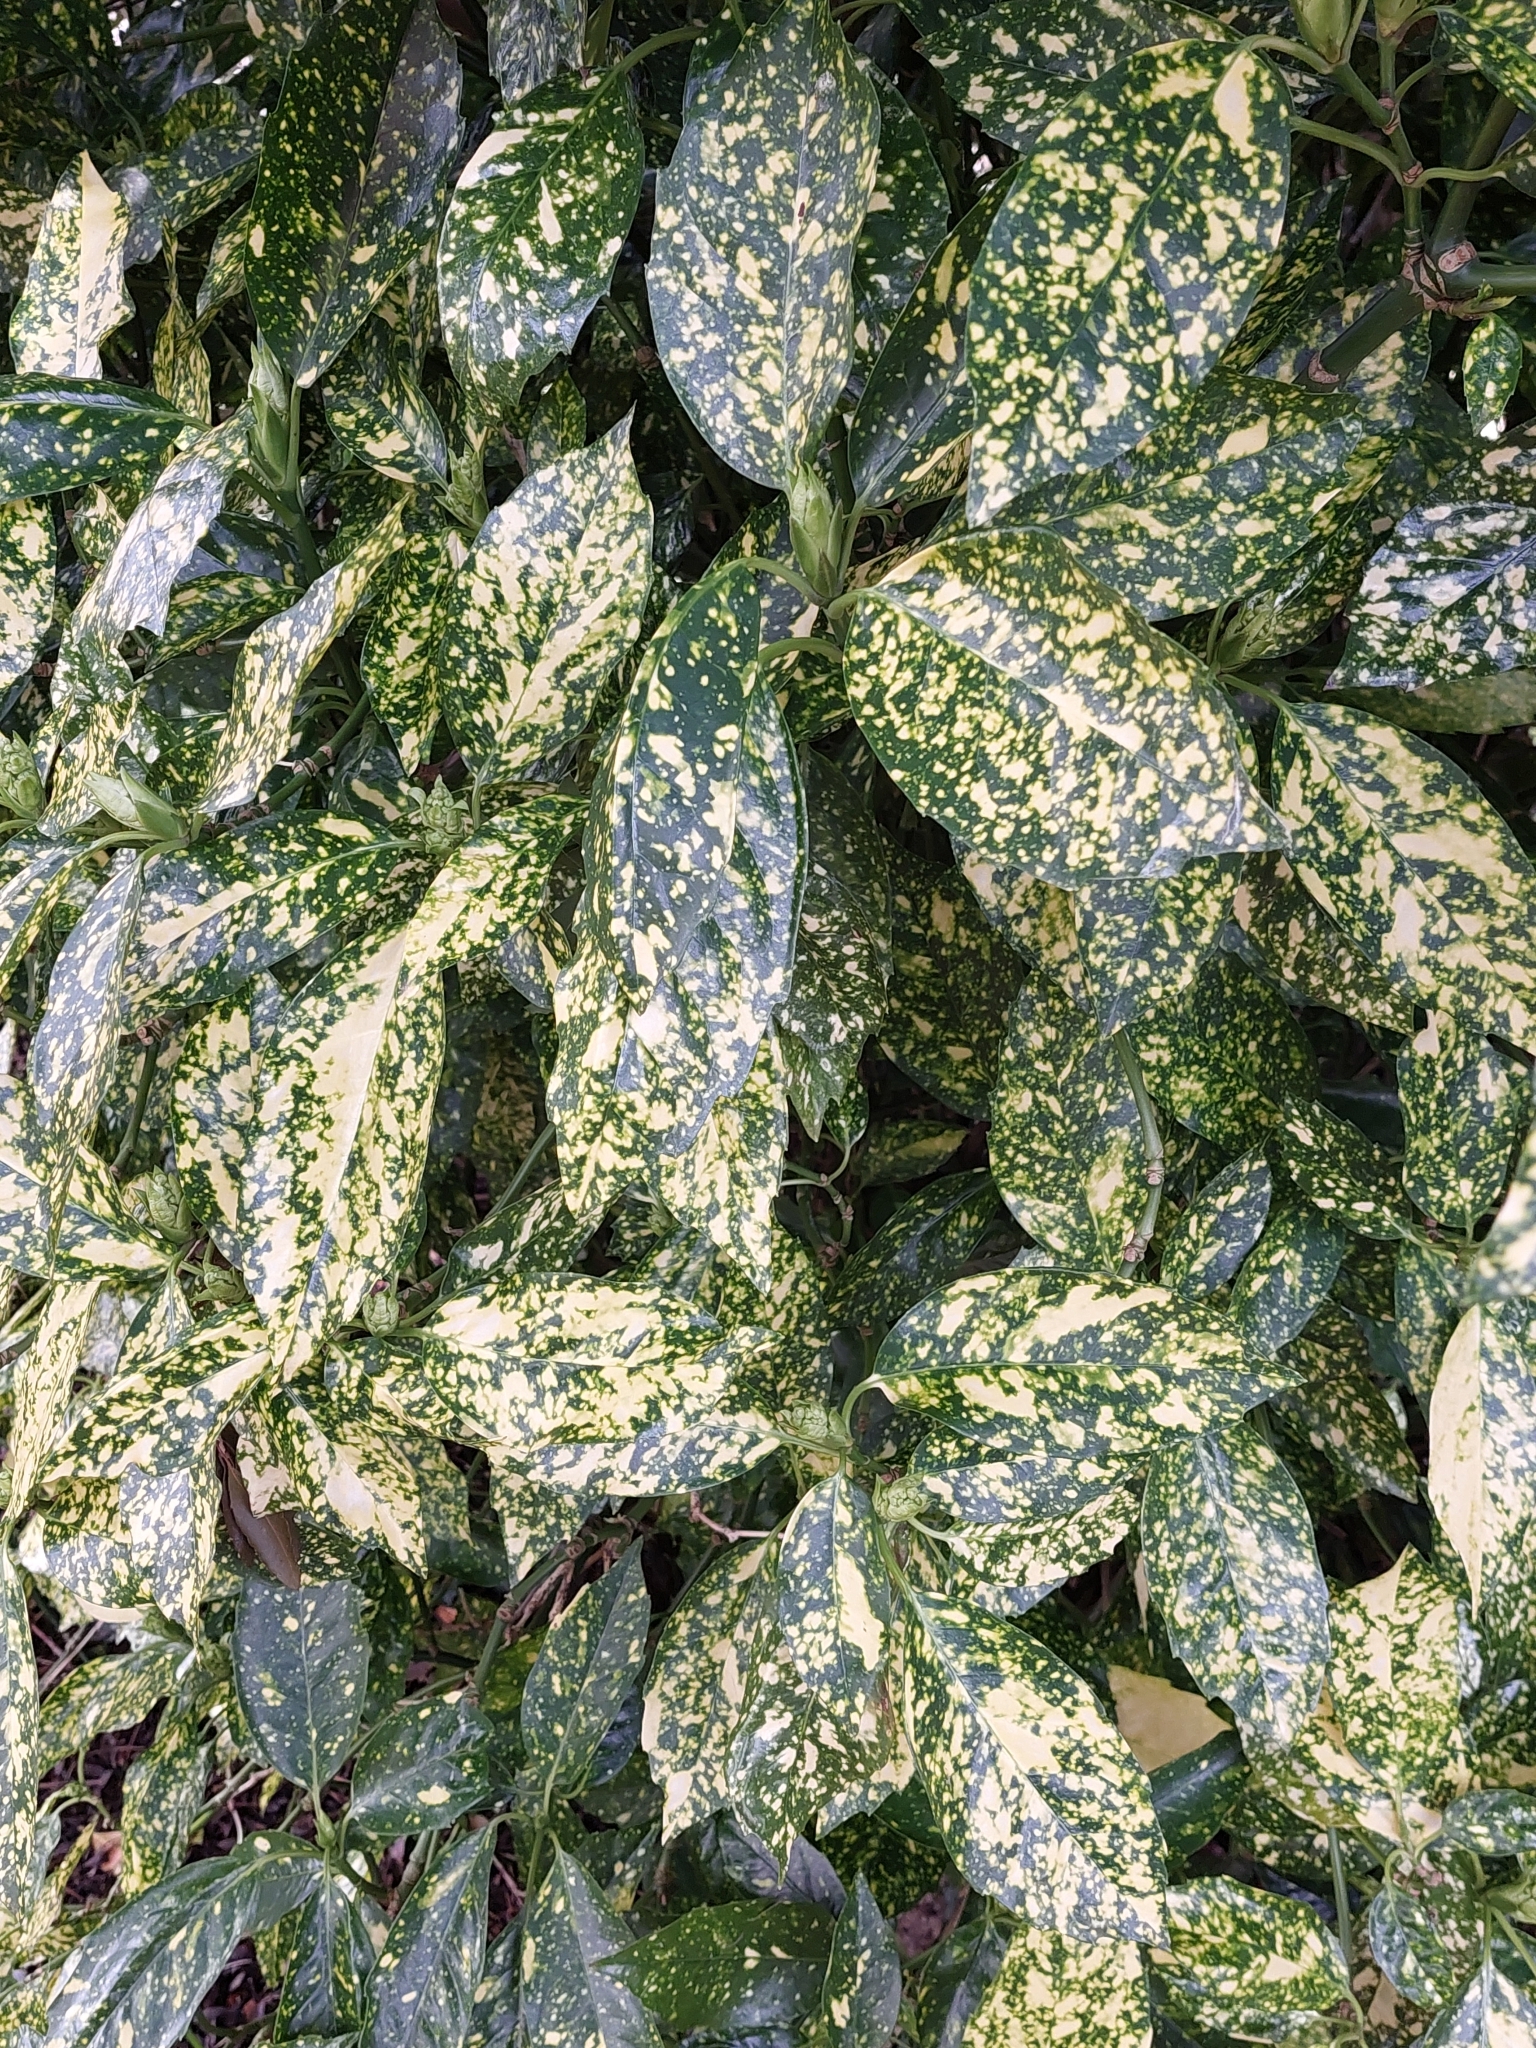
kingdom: Plantae
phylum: Tracheophyta
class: Magnoliopsida
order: Garryales
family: Garryaceae
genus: Aucuba
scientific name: Aucuba japonica
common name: Spotted-laurel
